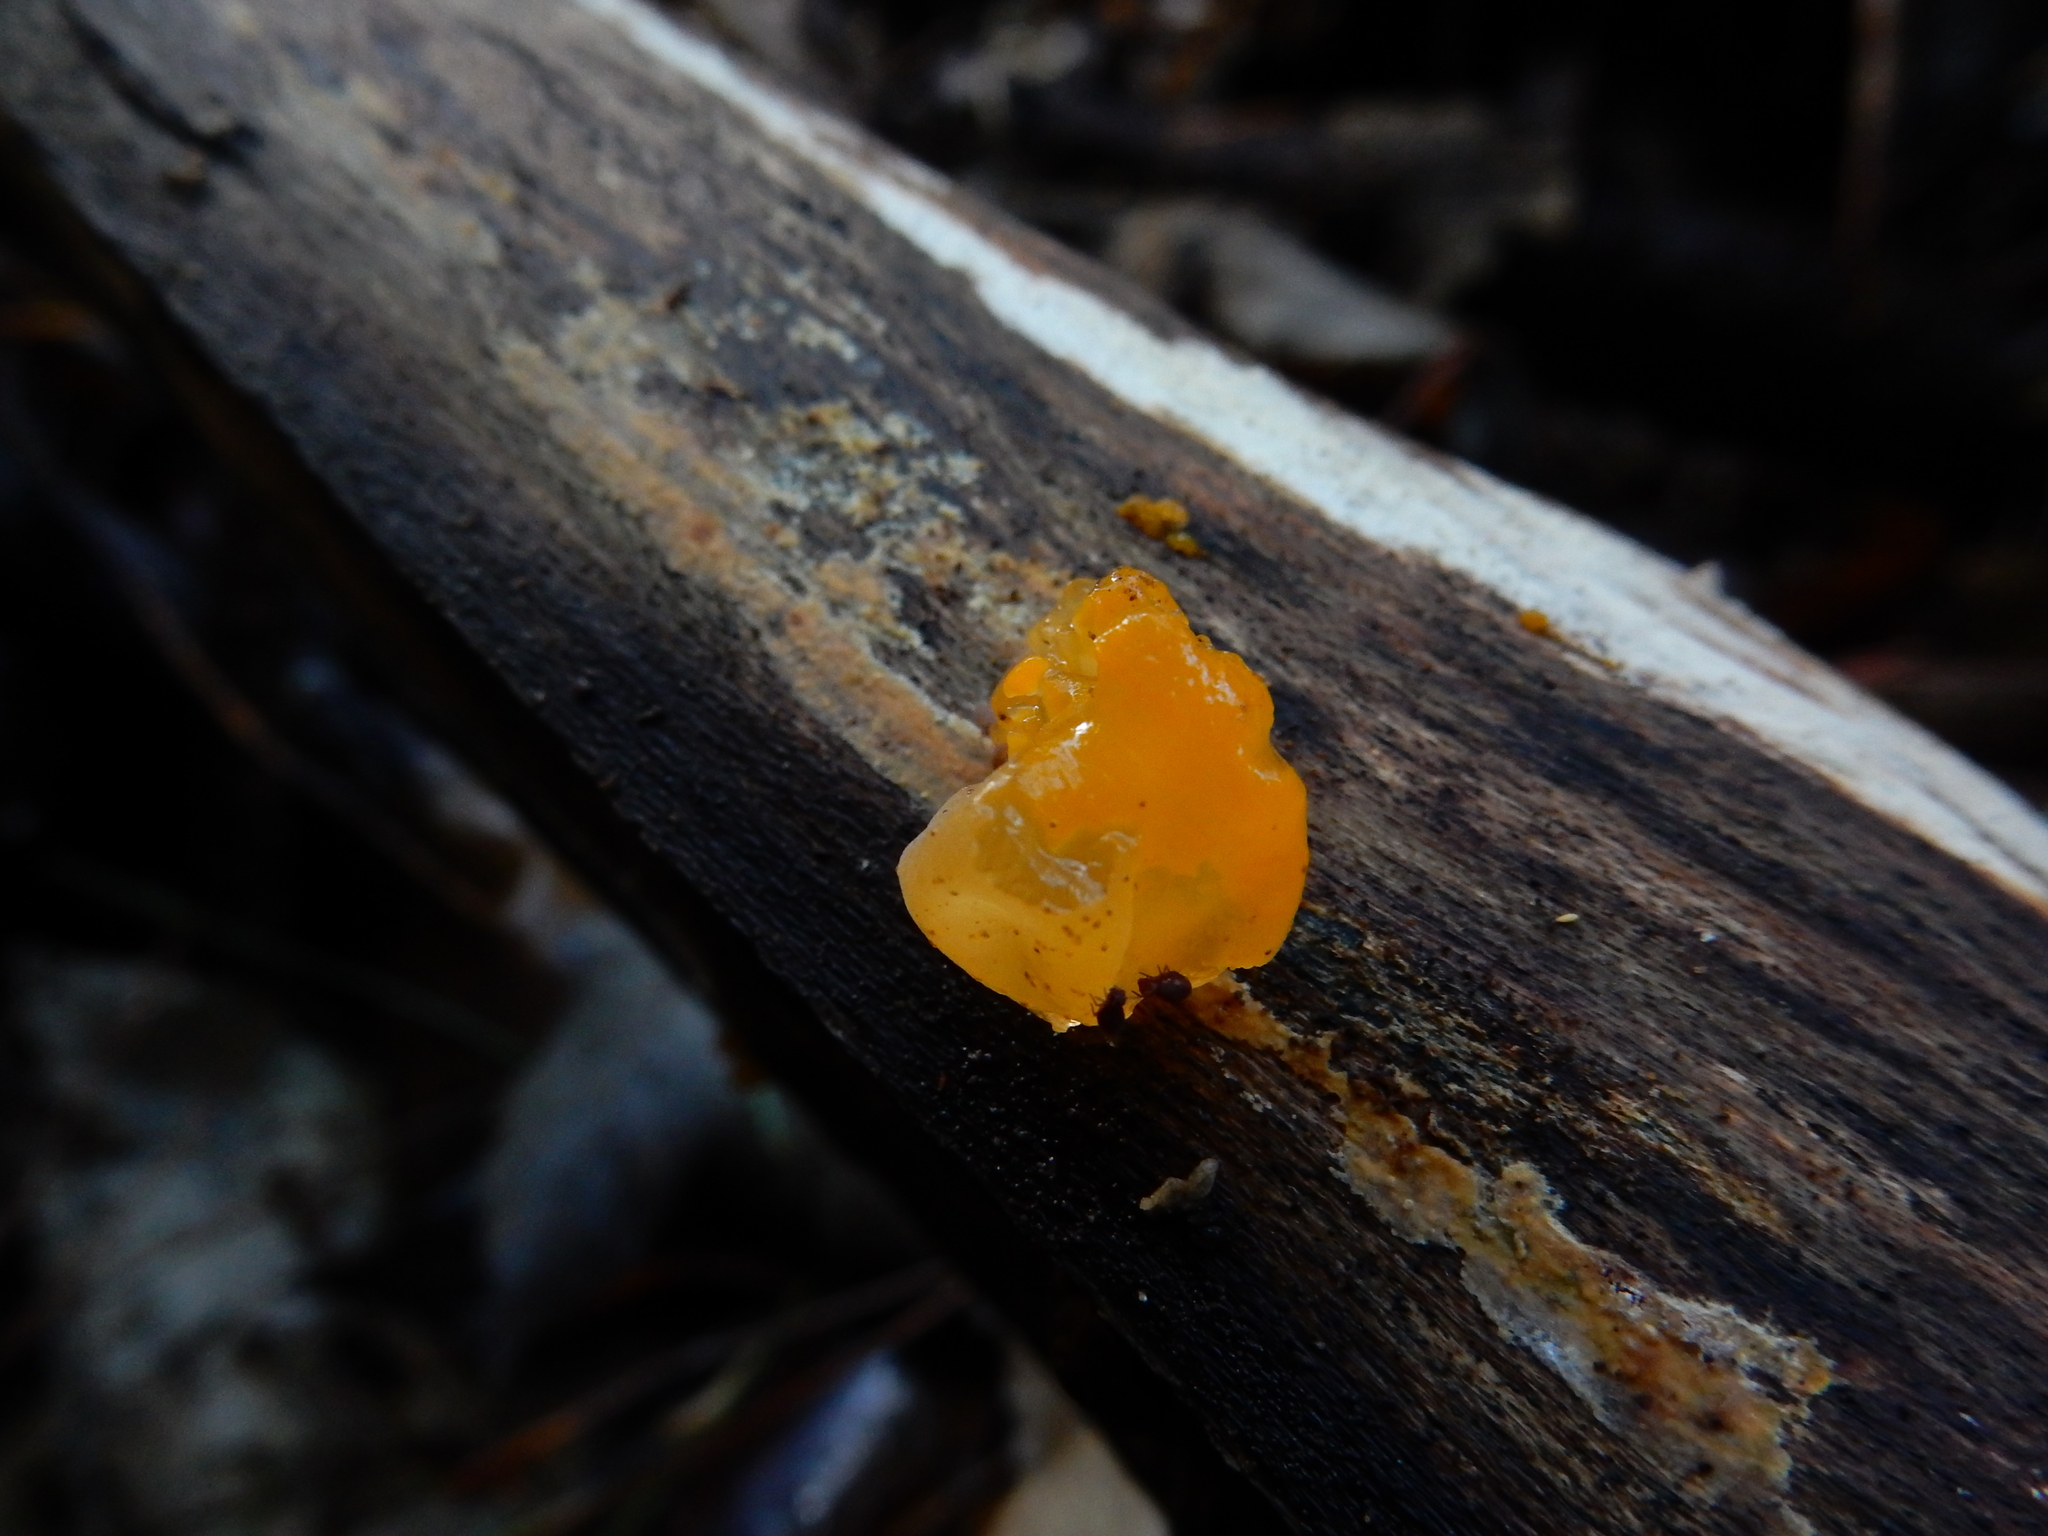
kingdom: Fungi
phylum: Basidiomycota
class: Tremellomycetes
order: Tremellales
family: Tremellaceae
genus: Tremella
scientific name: Tremella mesenterica
